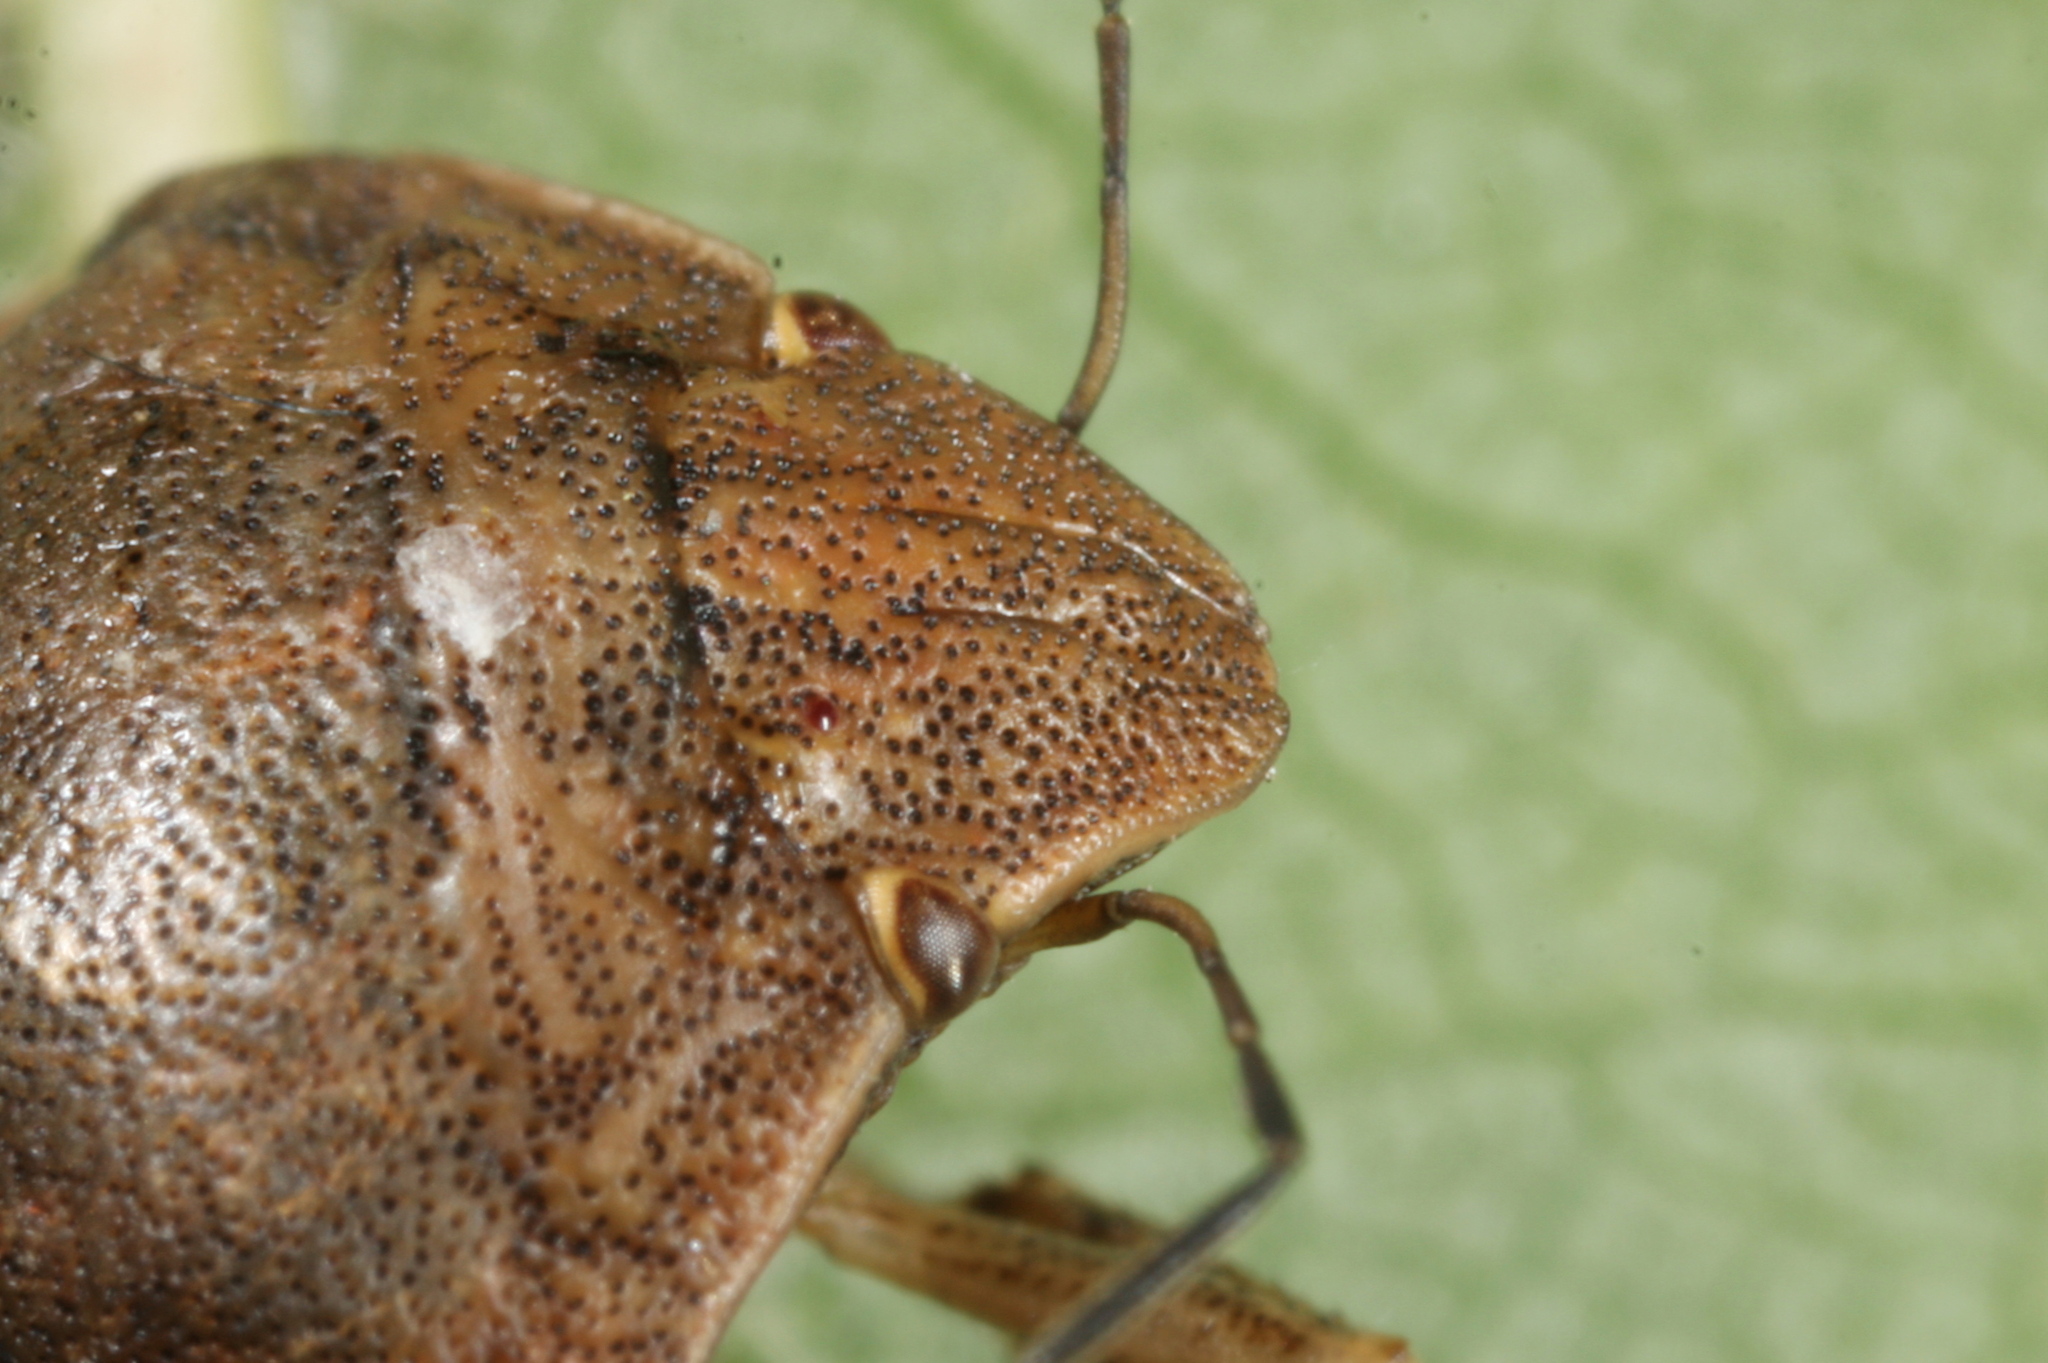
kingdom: Animalia
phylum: Arthropoda
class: Insecta
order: Hemiptera
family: Scutelleridae
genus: Eurygaster
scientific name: Eurygaster maura
